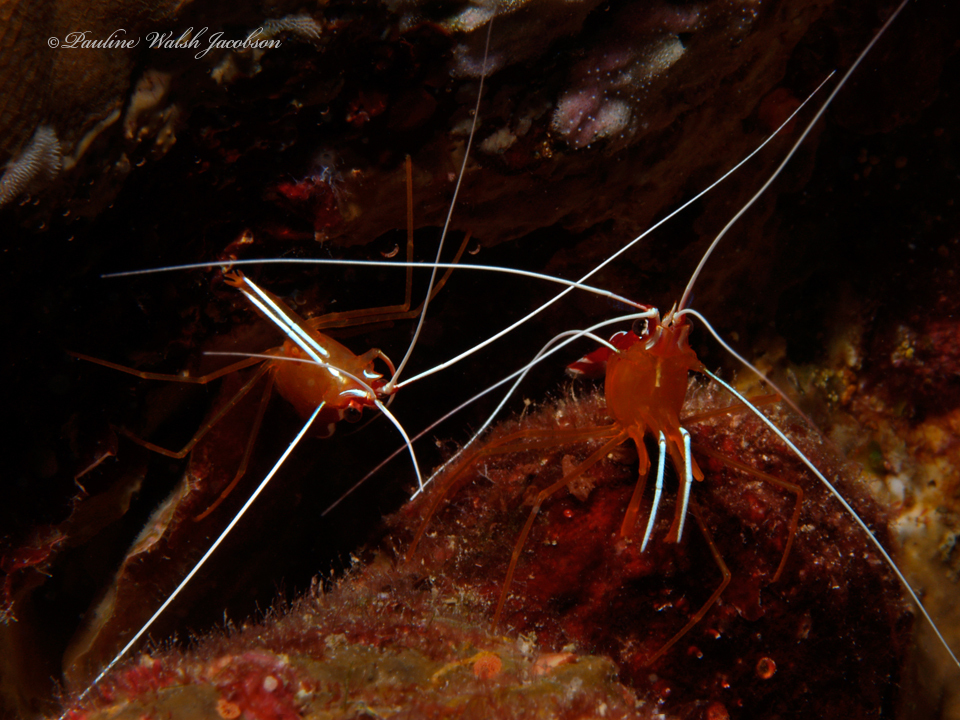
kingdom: Animalia
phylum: Arthropoda
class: Malacostraca
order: Decapoda
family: Lysmatidae
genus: Lysmata
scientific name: Lysmata amboinensis
